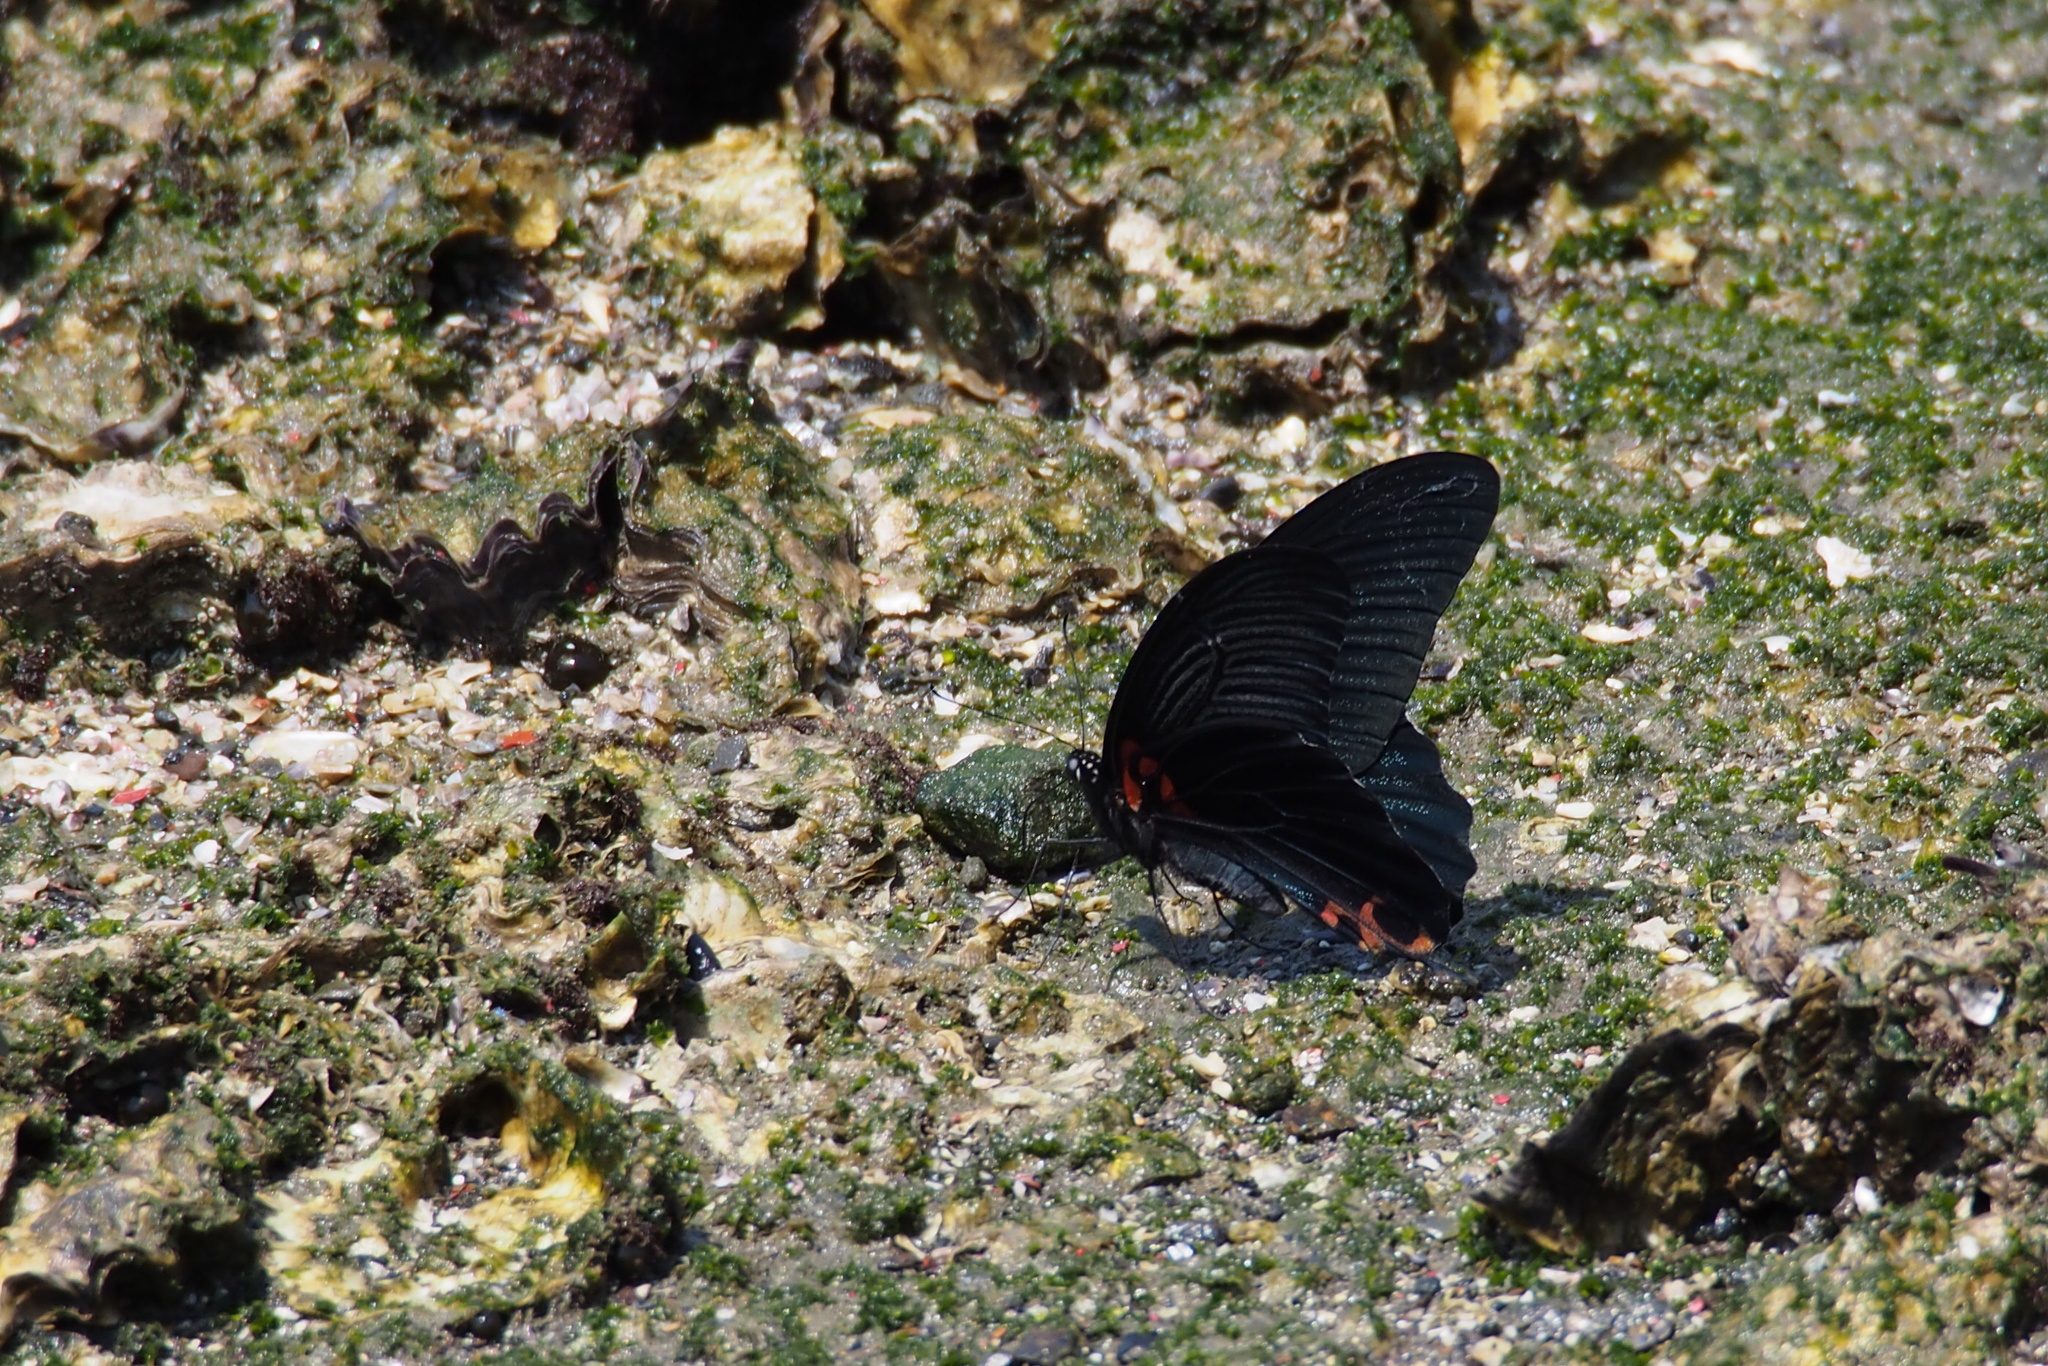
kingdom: Animalia
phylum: Arthropoda
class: Insecta
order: Lepidoptera
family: Papilionidae
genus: Papilio
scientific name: Papilio memnon
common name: Great mormon
